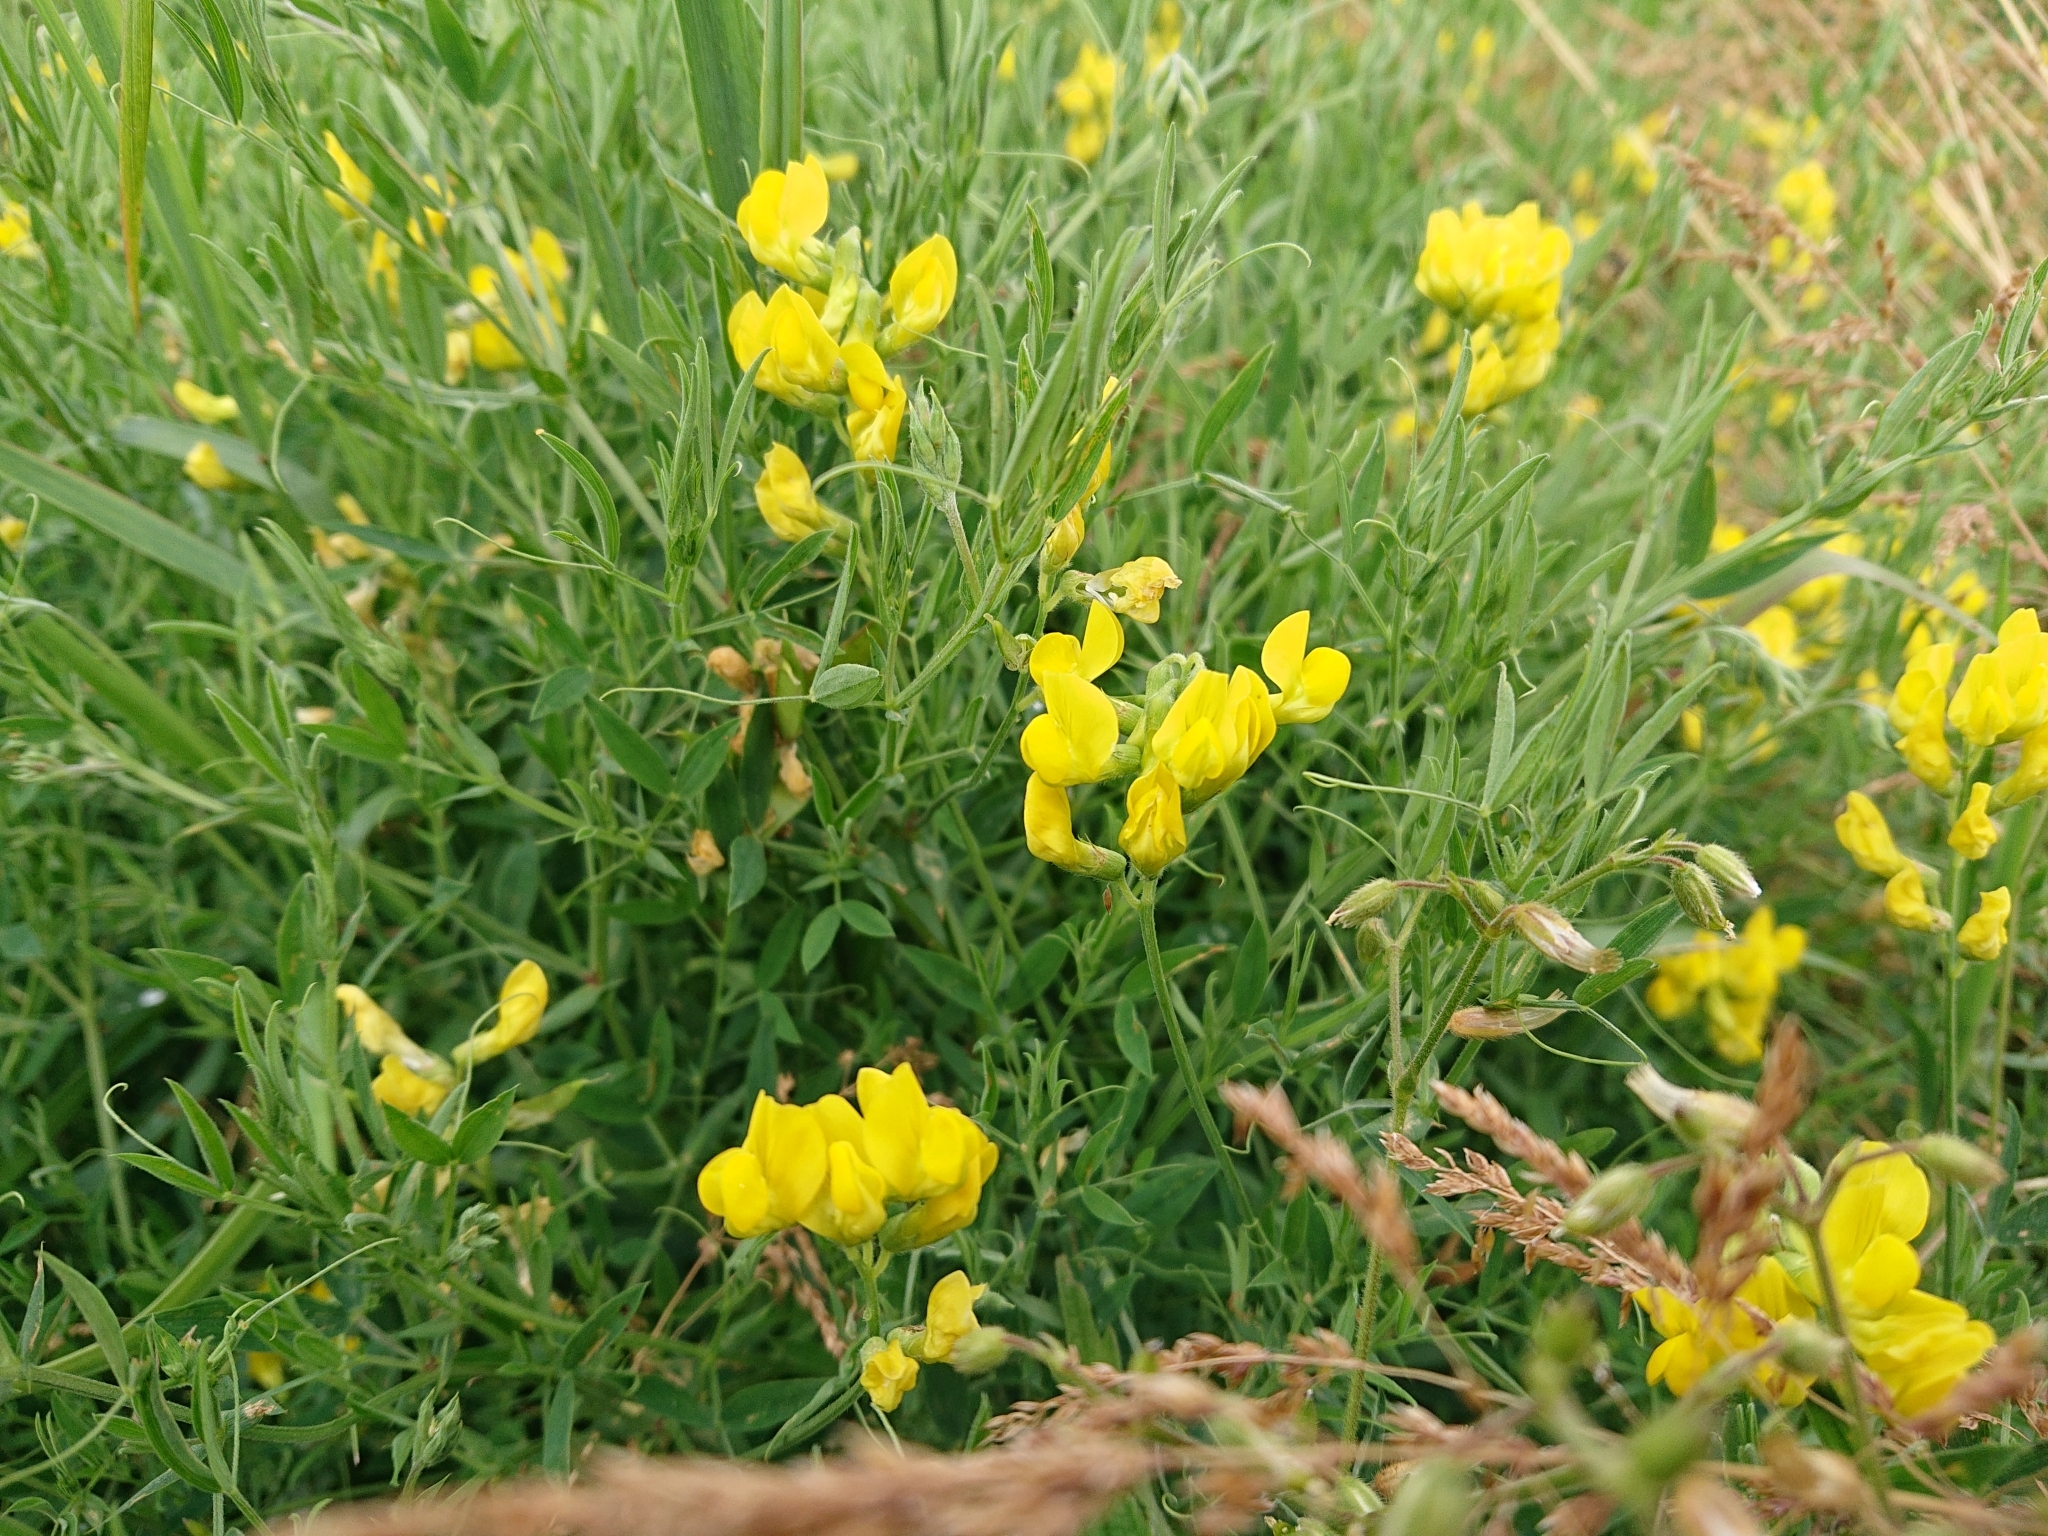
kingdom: Plantae
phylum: Tracheophyta
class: Magnoliopsida
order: Fabales
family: Fabaceae
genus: Lathyrus
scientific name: Lathyrus pratensis
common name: Meadow vetchling
